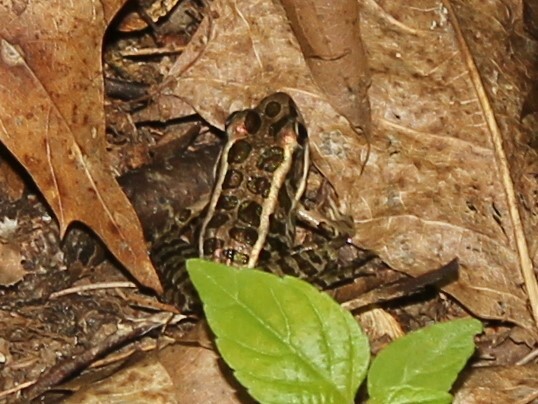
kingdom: Animalia
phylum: Chordata
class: Amphibia
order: Anura
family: Ranidae
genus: Lithobates
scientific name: Lithobates palustris
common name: Pickerel frog
